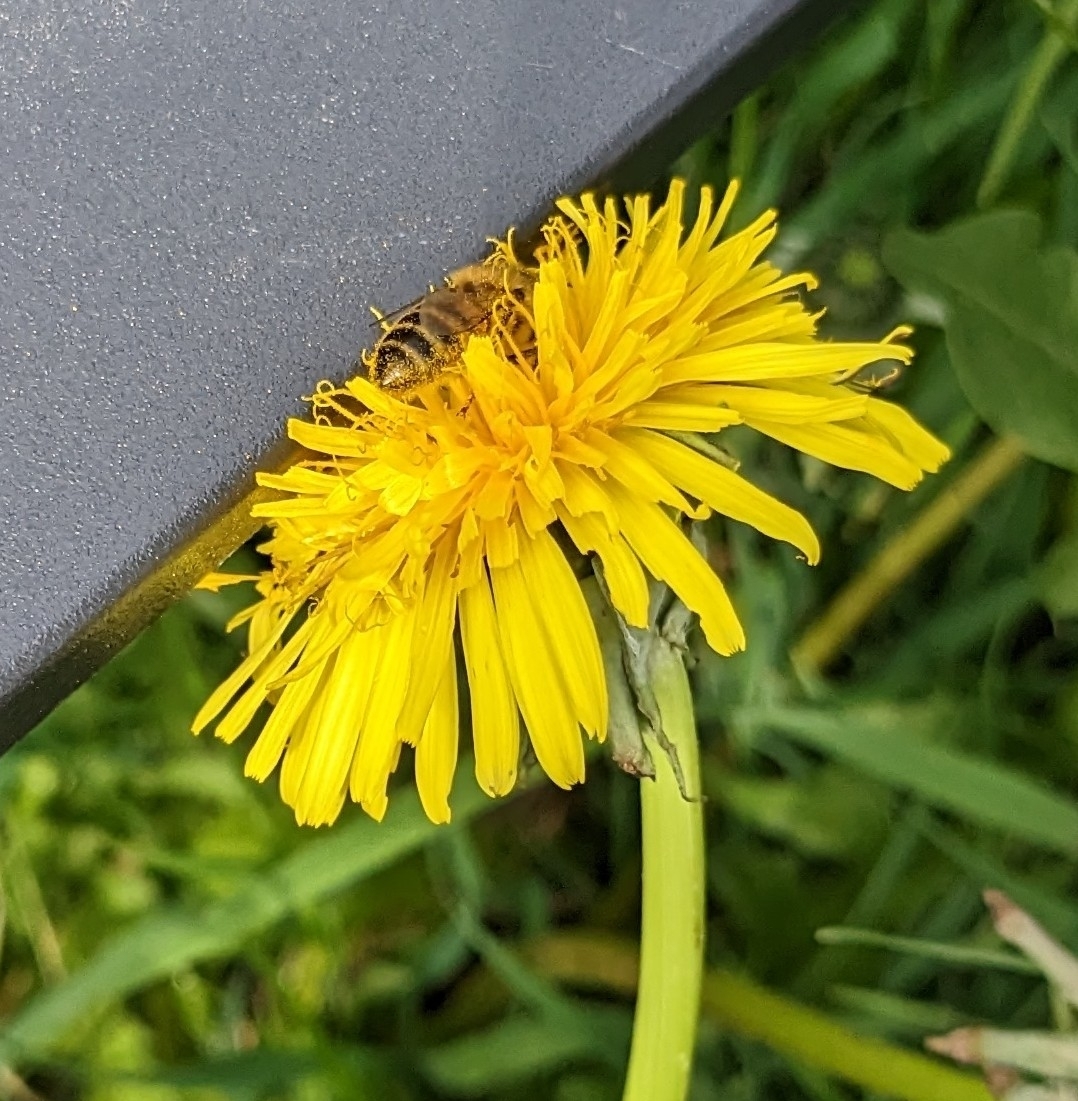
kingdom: Animalia
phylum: Arthropoda
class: Insecta
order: Hymenoptera
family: Apidae
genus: Apis
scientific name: Apis mellifera
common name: Honey bee
